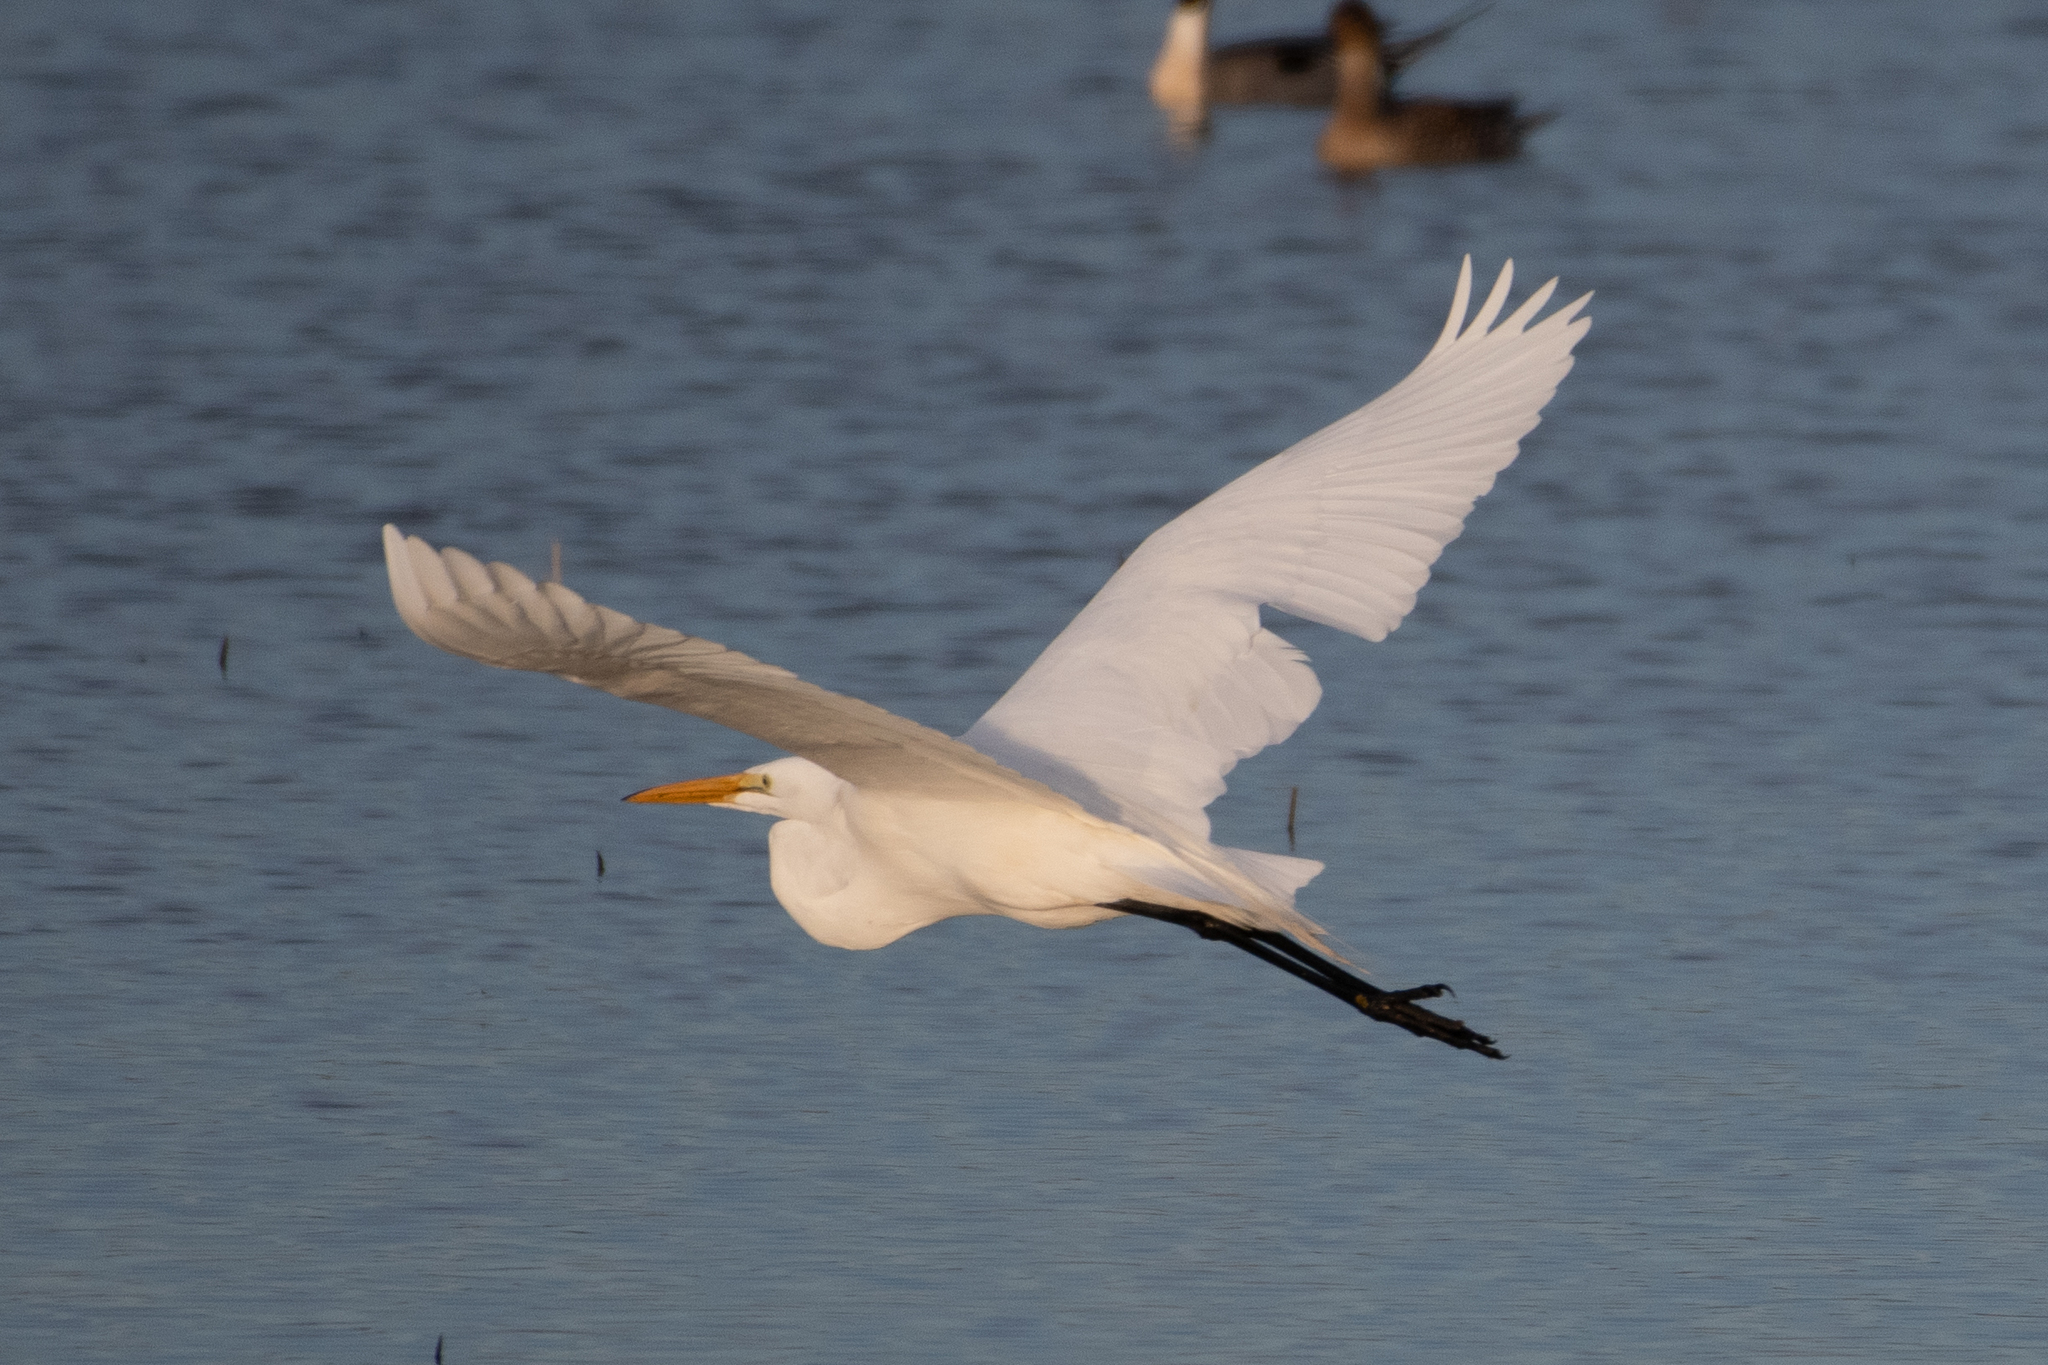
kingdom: Animalia
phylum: Chordata
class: Aves
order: Pelecaniformes
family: Ardeidae
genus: Ardea
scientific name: Ardea alba
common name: Great egret
